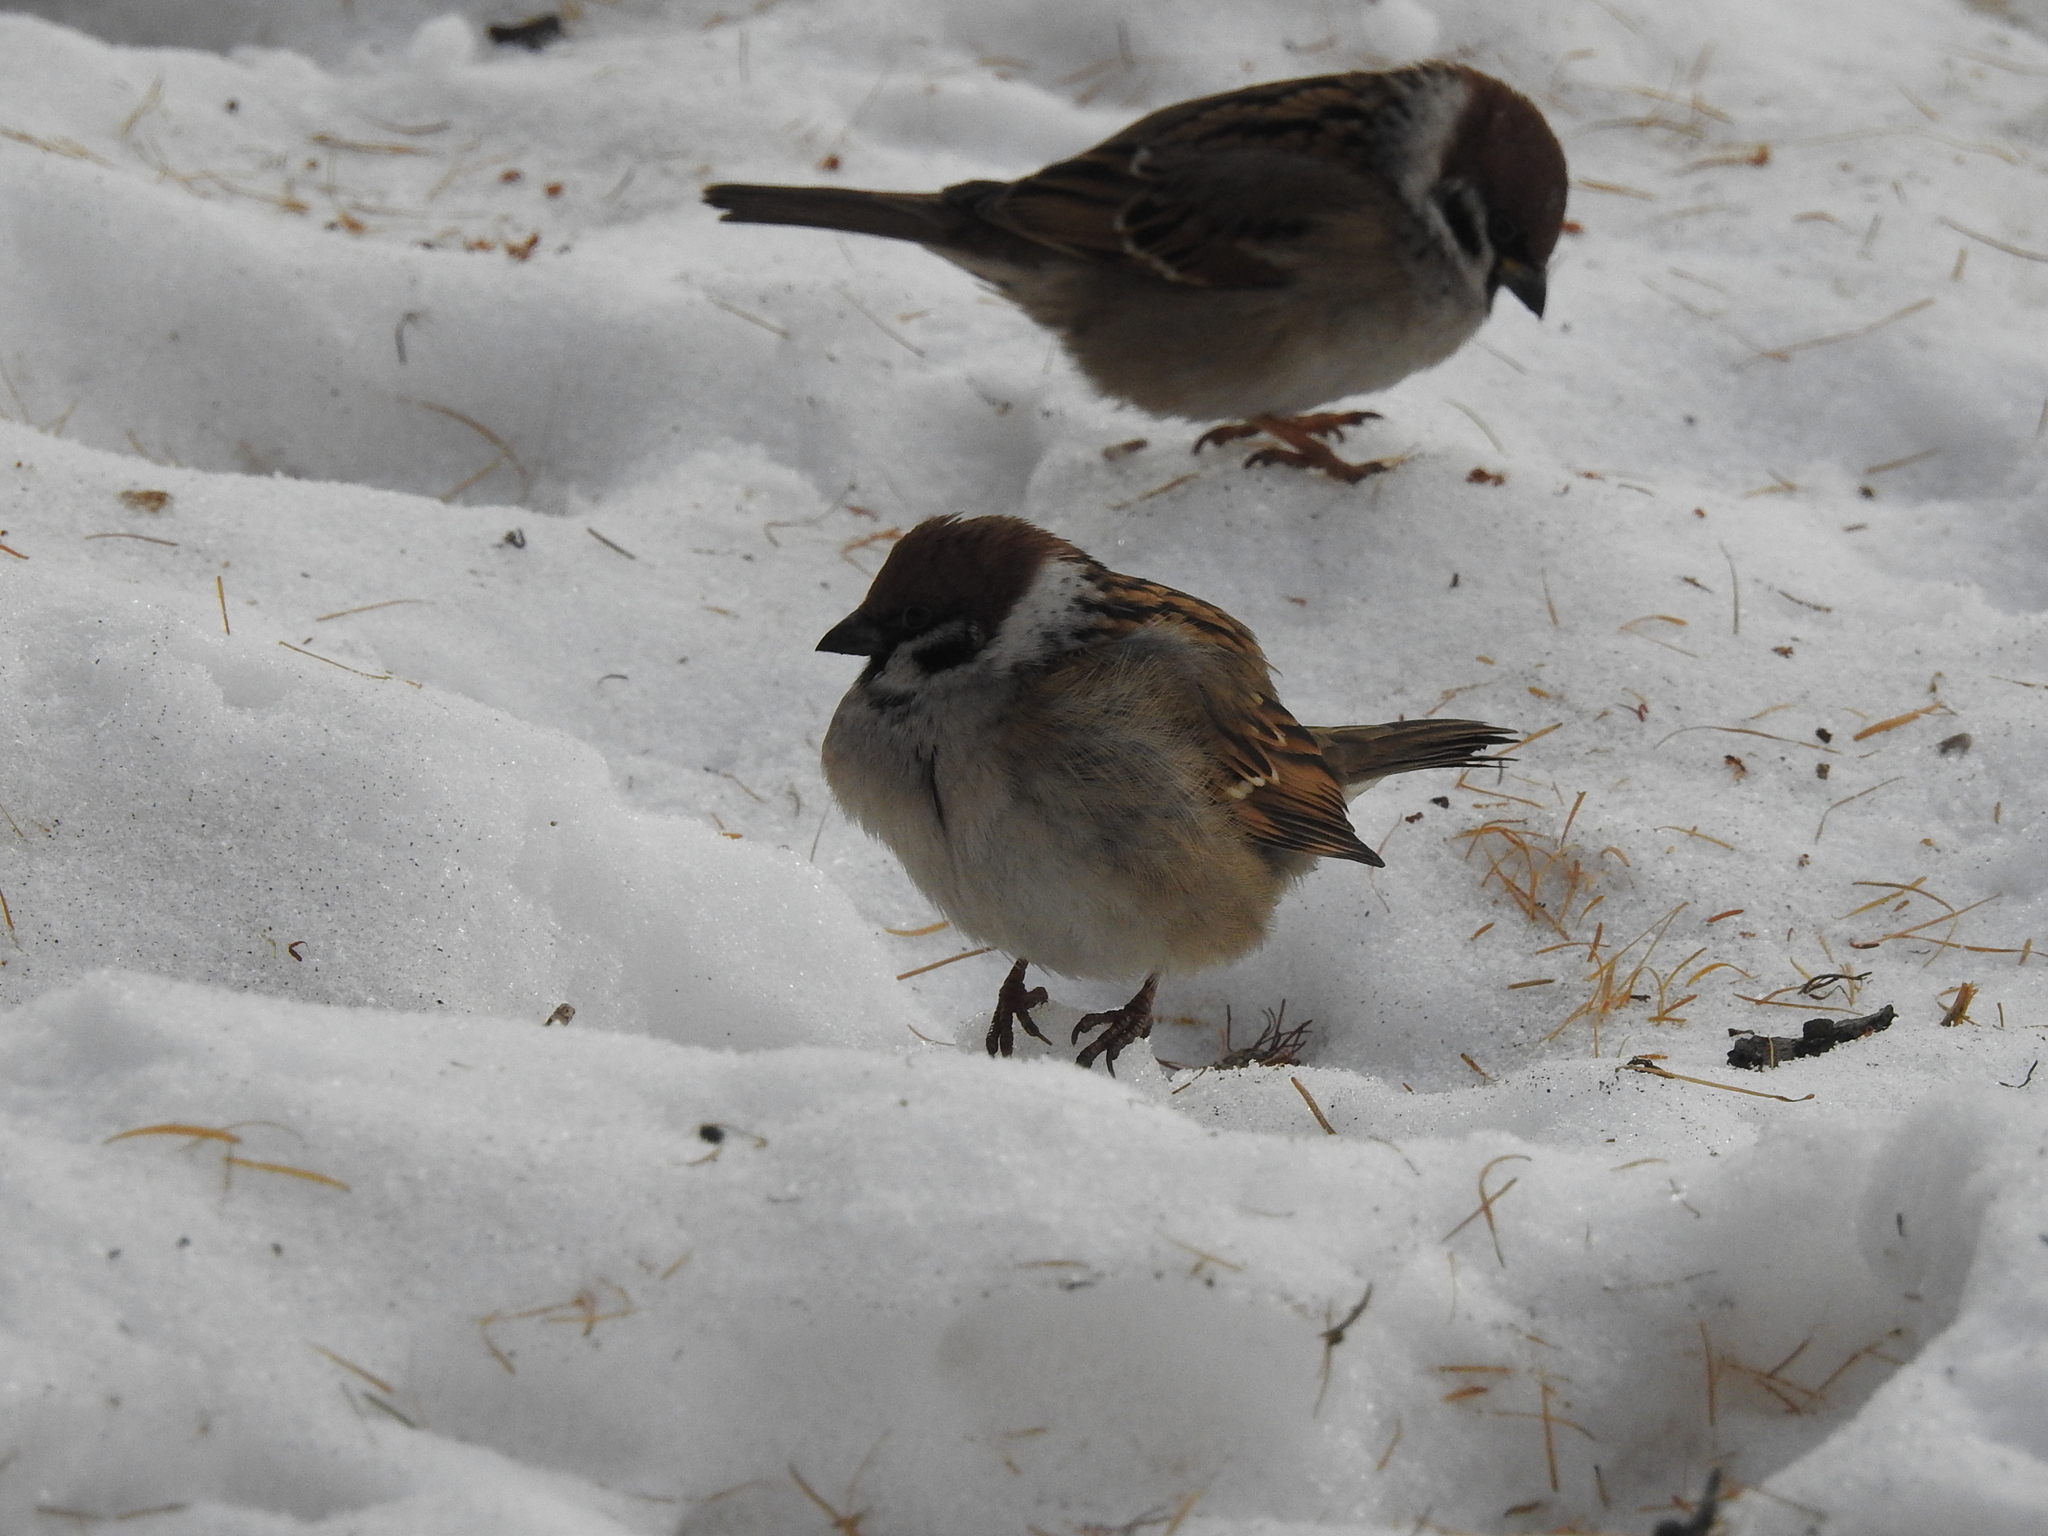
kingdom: Animalia
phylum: Chordata
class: Aves
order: Passeriformes
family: Passeridae
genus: Passer
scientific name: Passer montanus
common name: Eurasian tree sparrow
